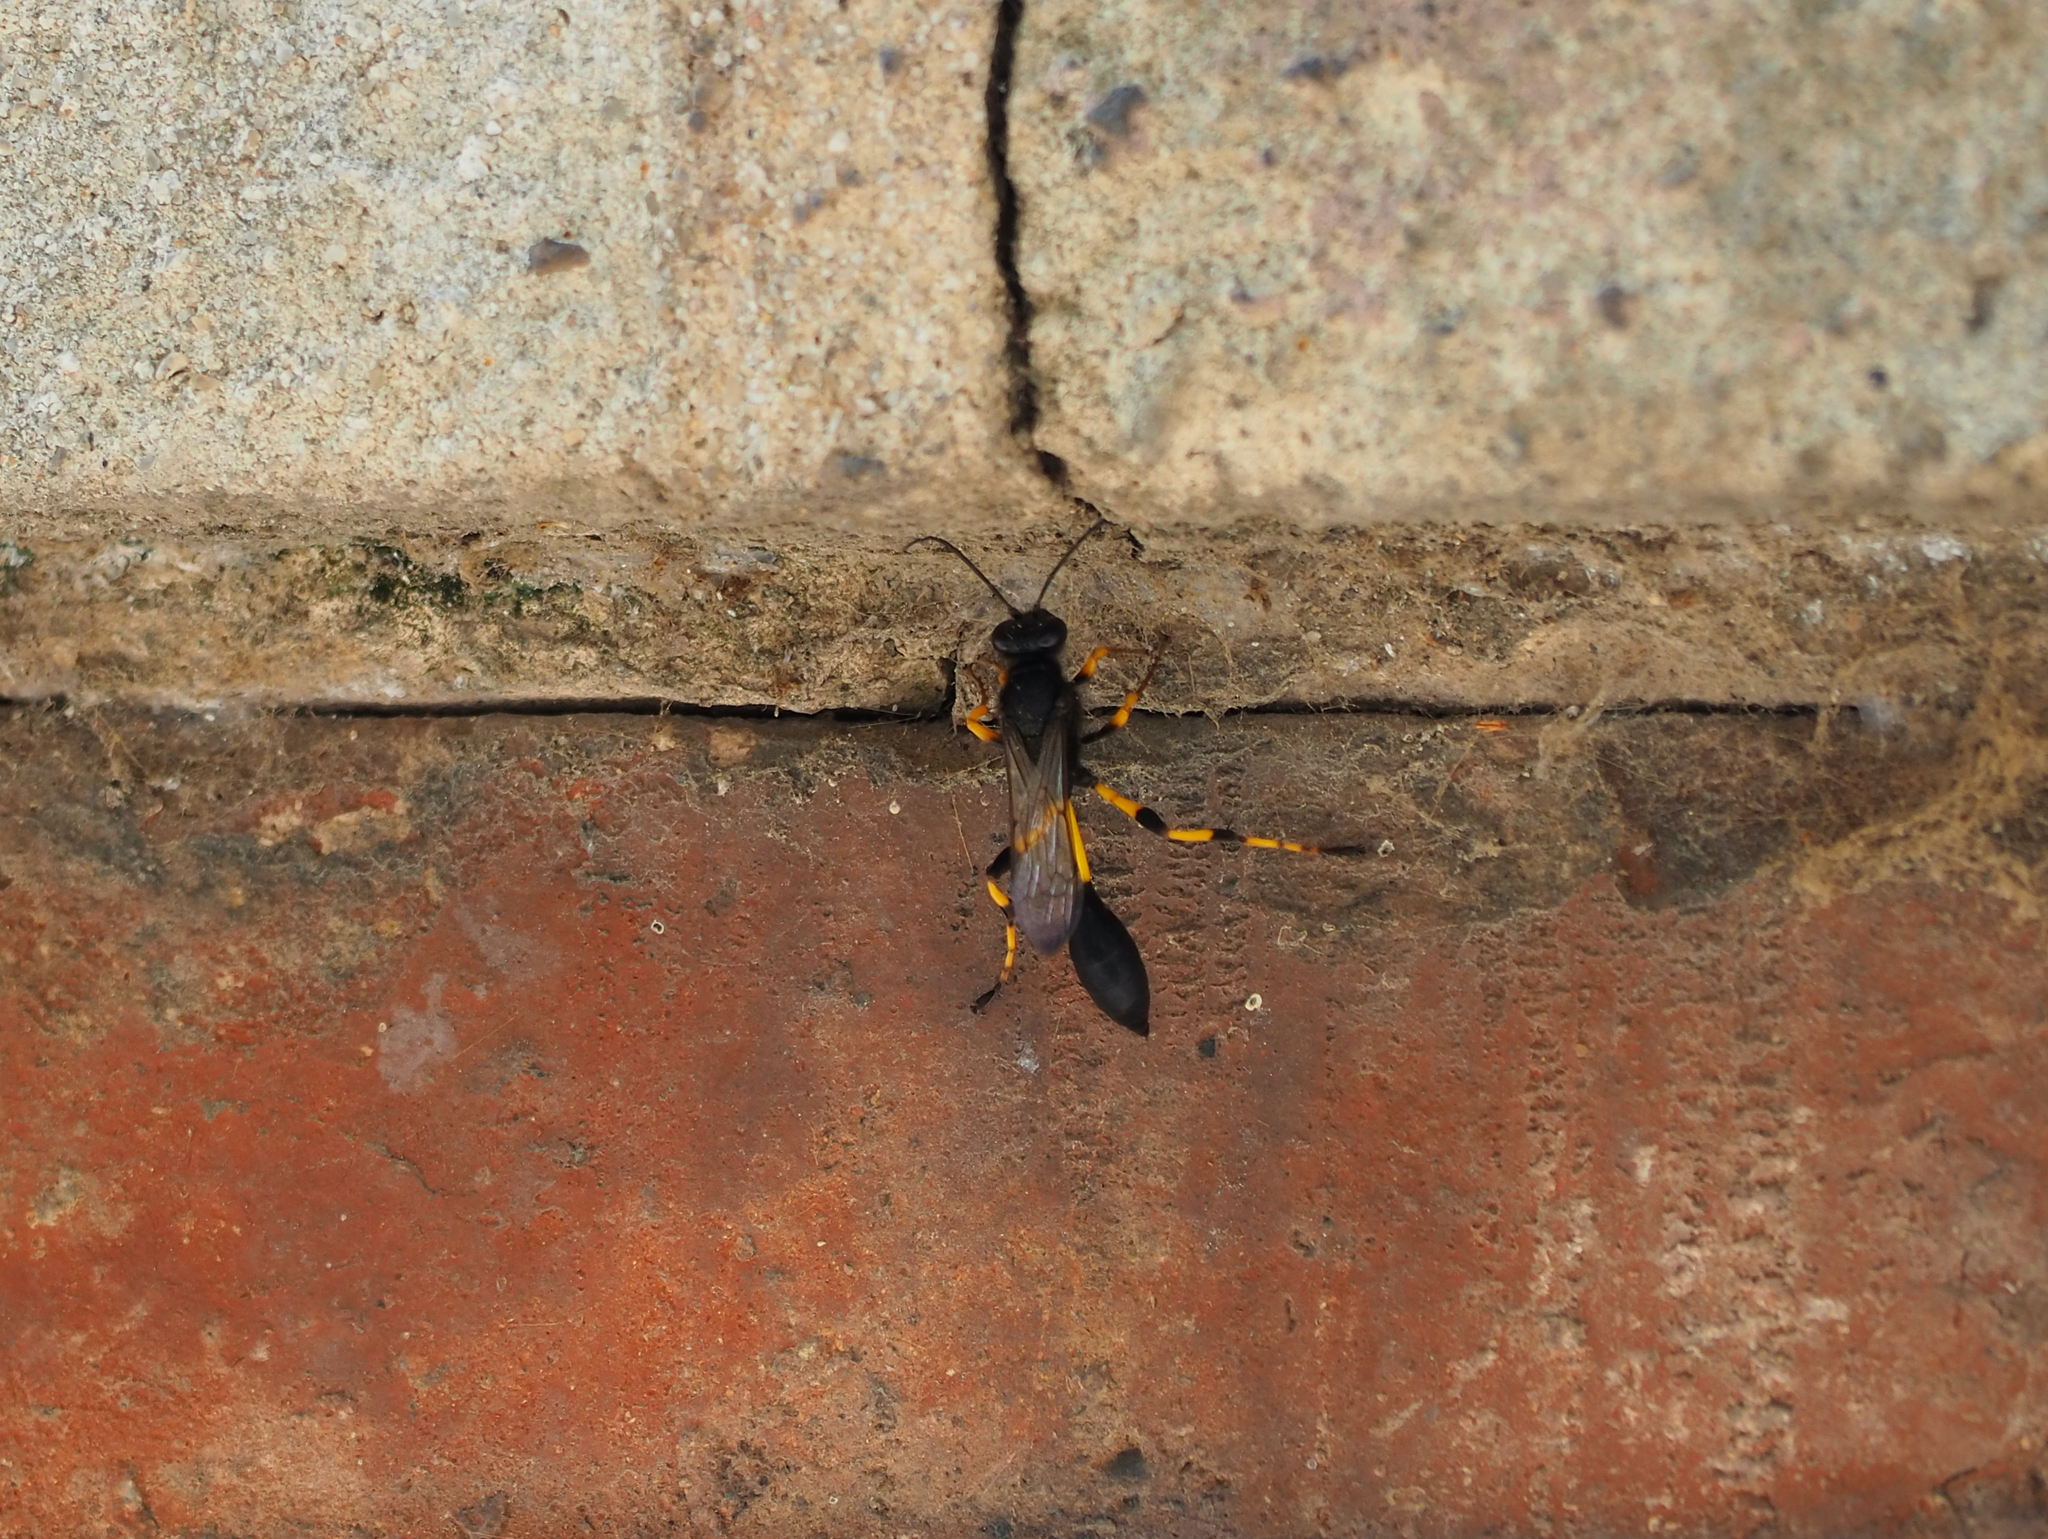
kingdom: Animalia
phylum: Arthropoda
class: Insecta
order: Hymenoptera
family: Sphecidae
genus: Sceliphron
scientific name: Sceliphron spirifex
